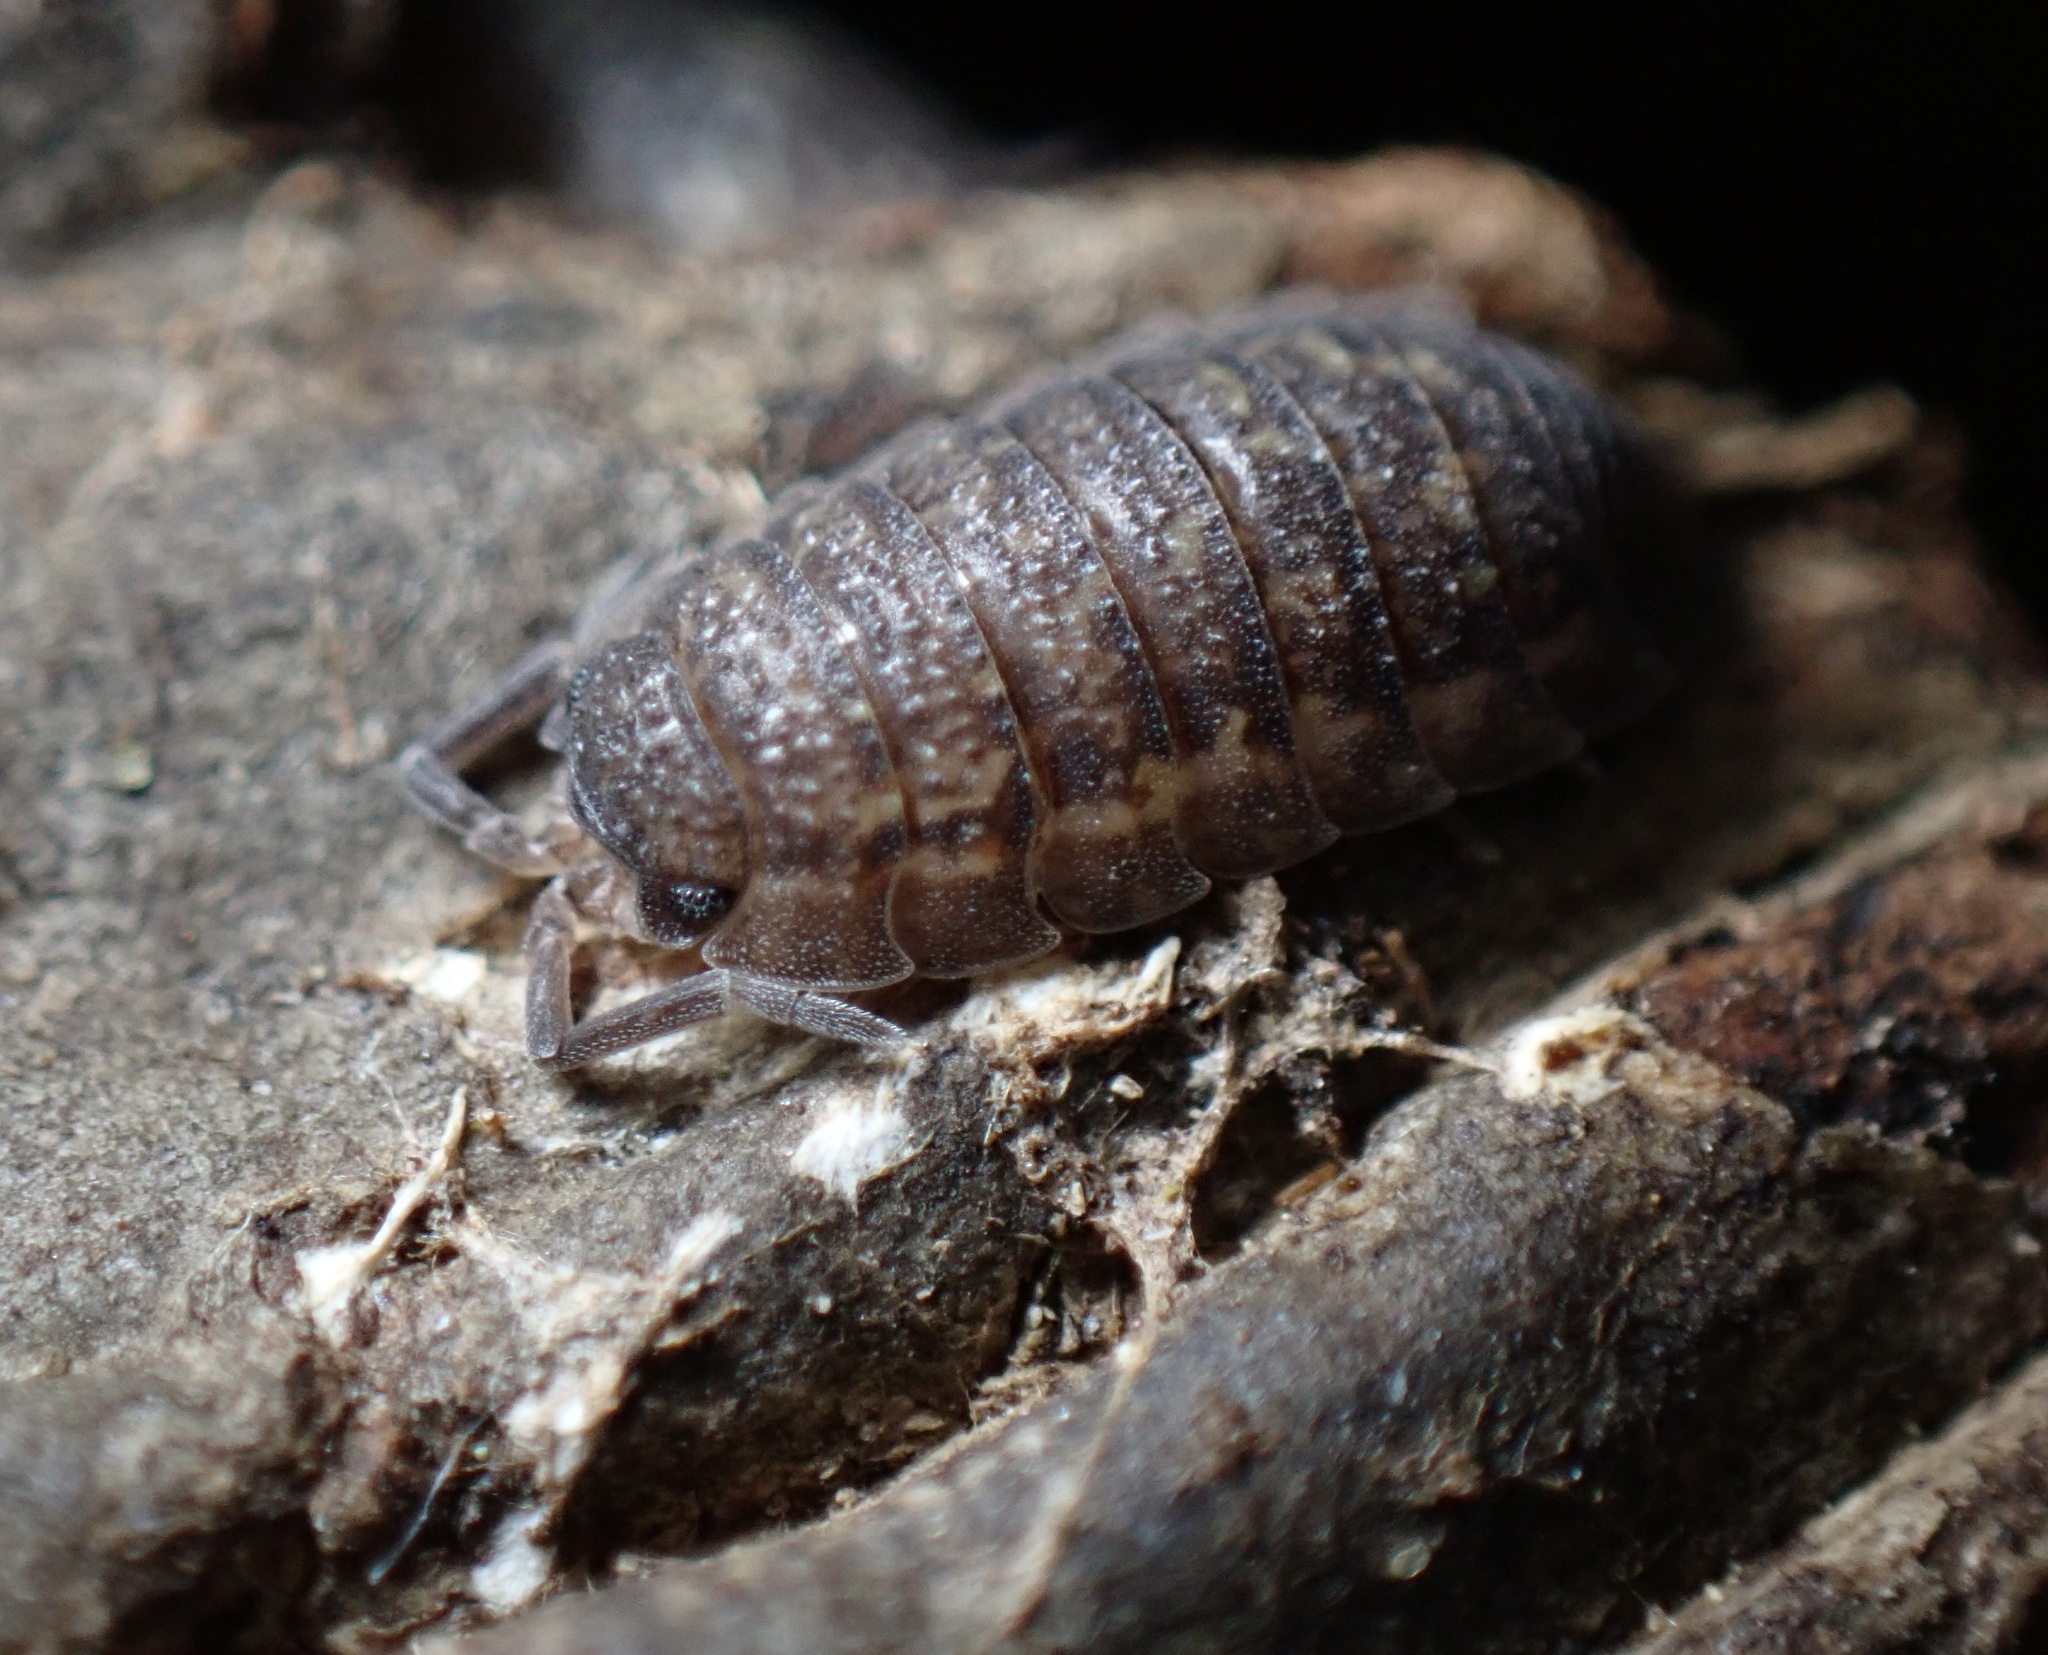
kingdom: Animalia
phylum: Arthropoda
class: Malacostraca
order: Isopoda
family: Porcellionidae
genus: Porcellio
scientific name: Porcellio scaber
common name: Common rough woodlouse
